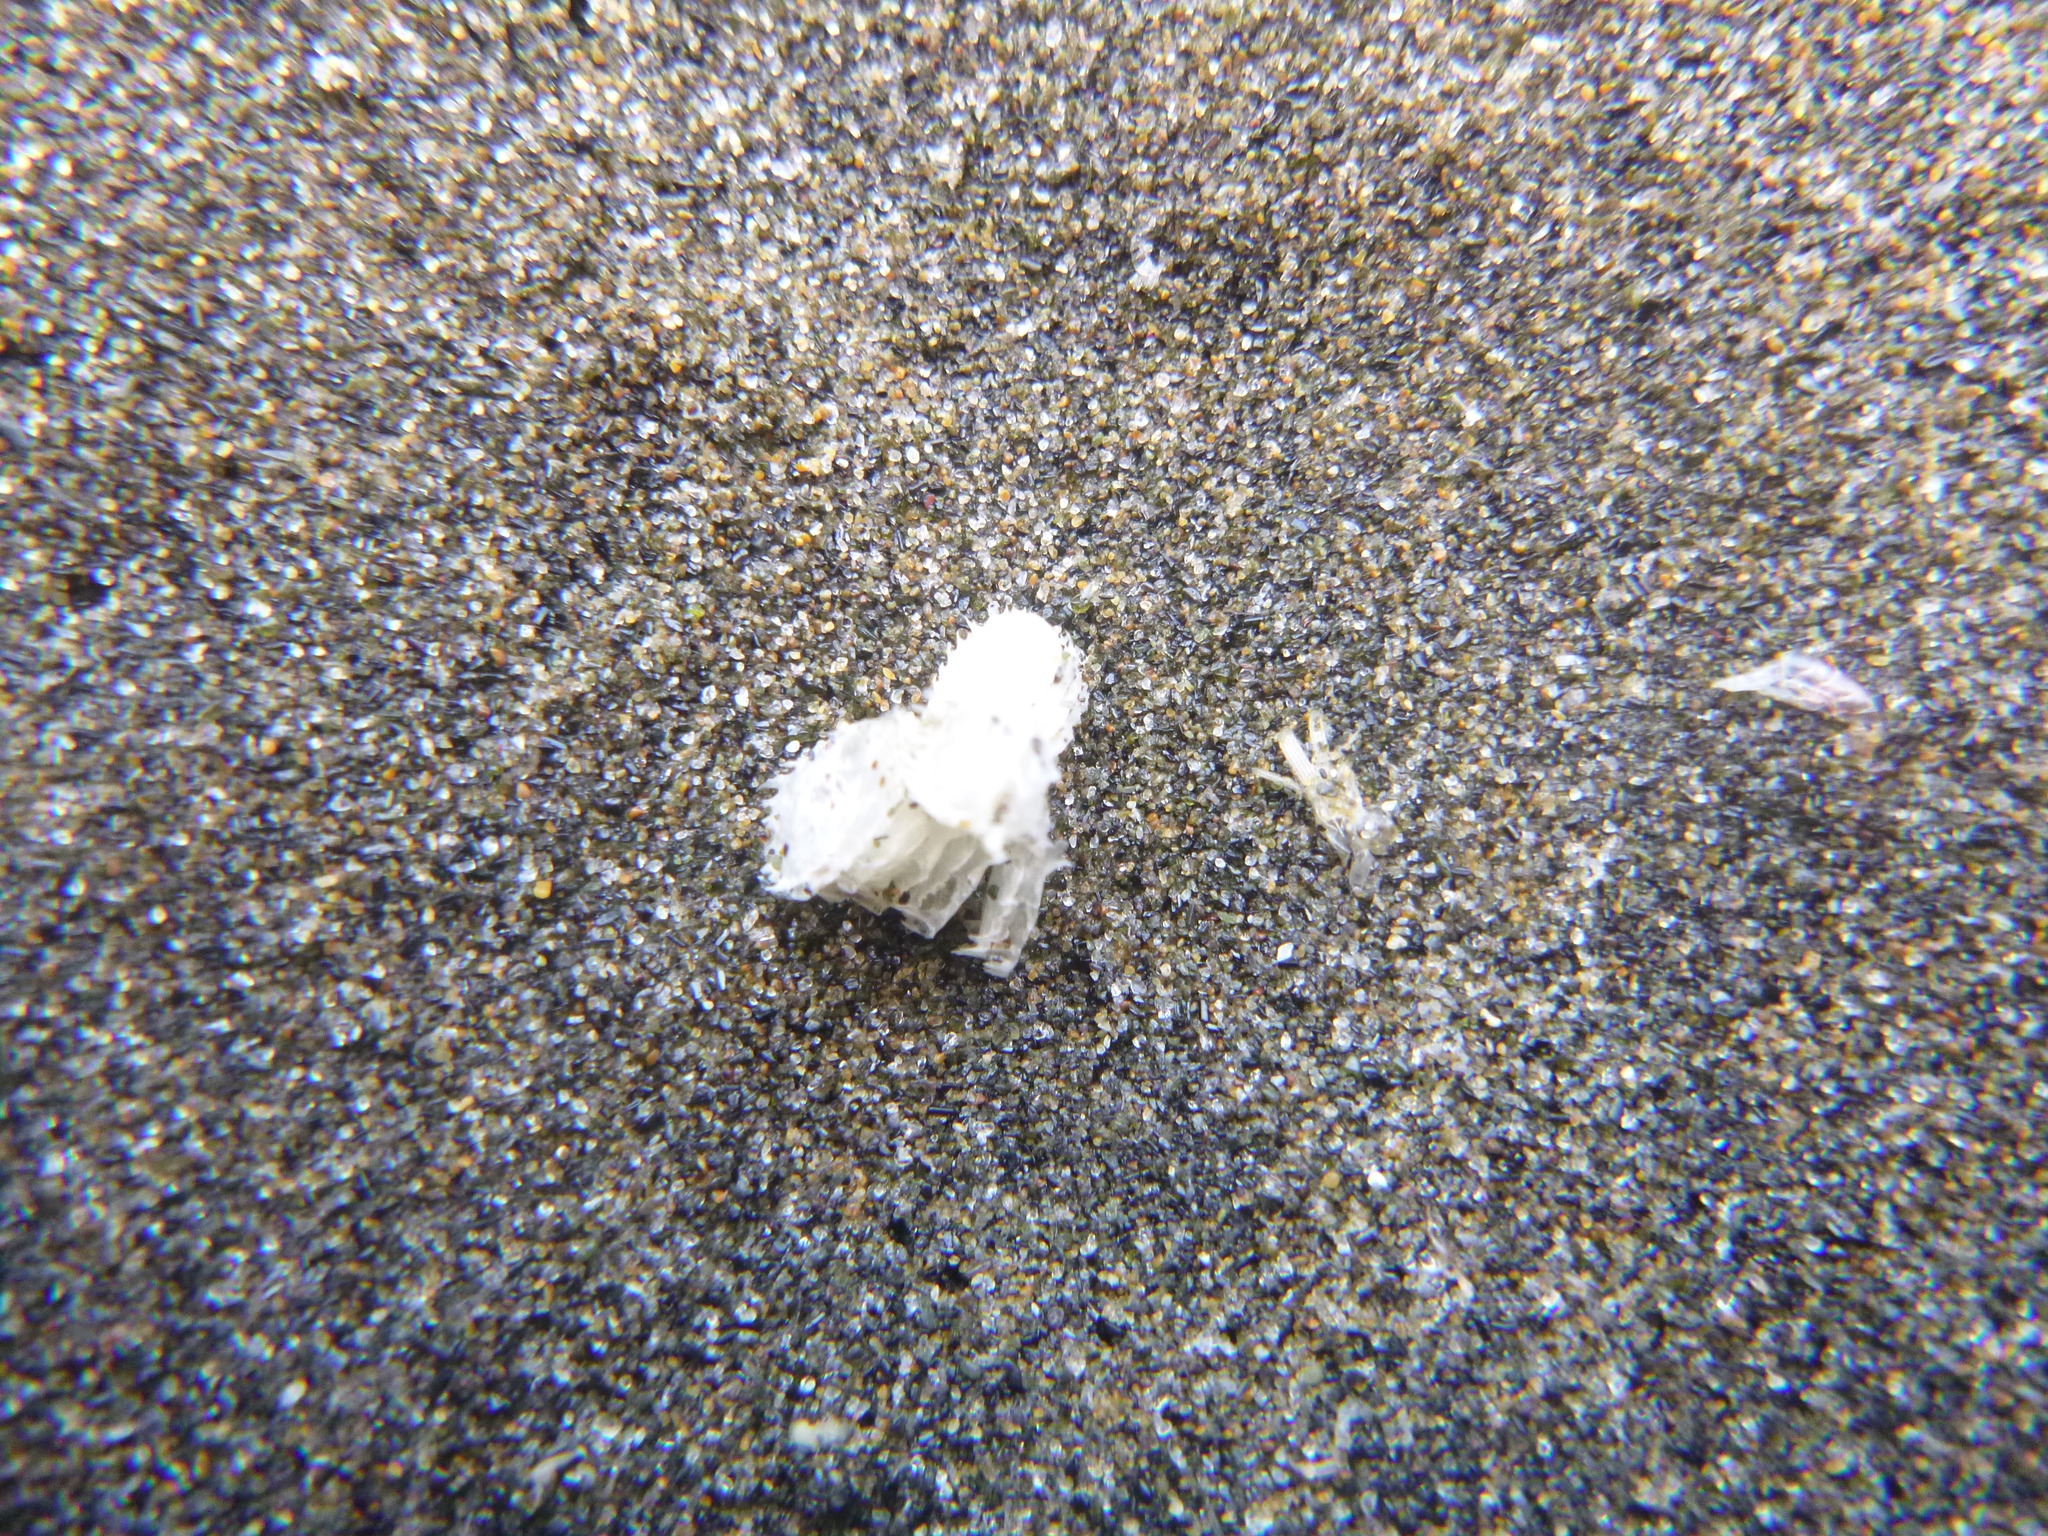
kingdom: Animalia
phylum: Mollusca
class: Gastropoda
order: Neogastropoda
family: Muricidae
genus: Poirieria
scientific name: Poirieria zelandica
